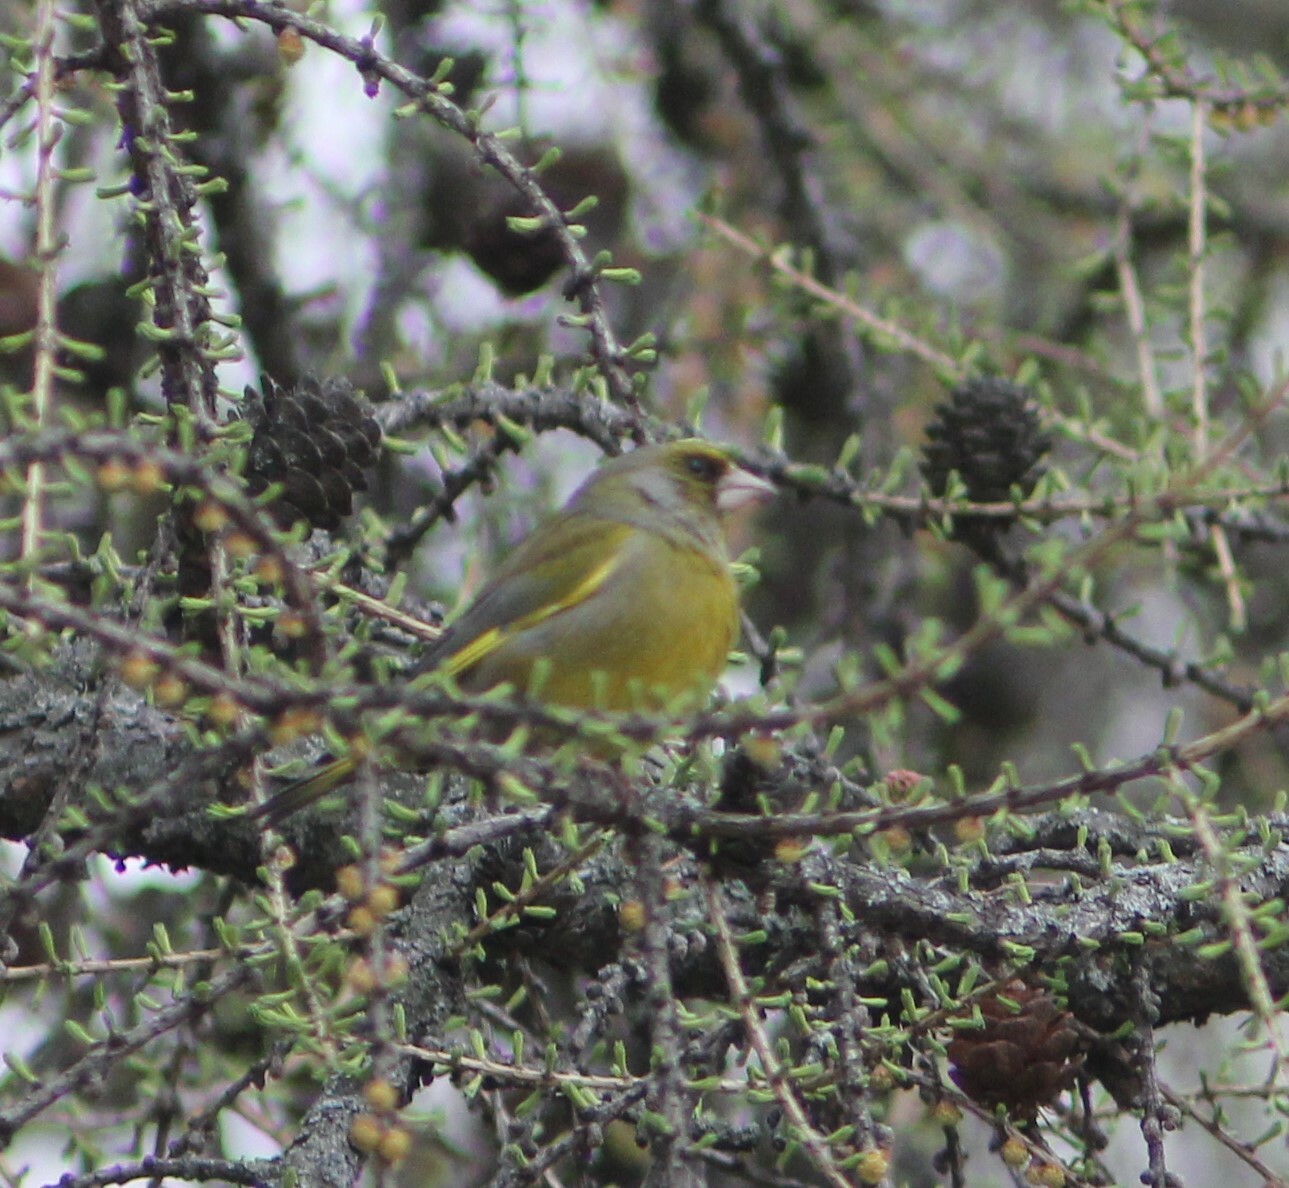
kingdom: Plantae
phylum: Tracheophyta
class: Liliopsida
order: Poales
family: Poaceae
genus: Chloris
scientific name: Chloris chloris
